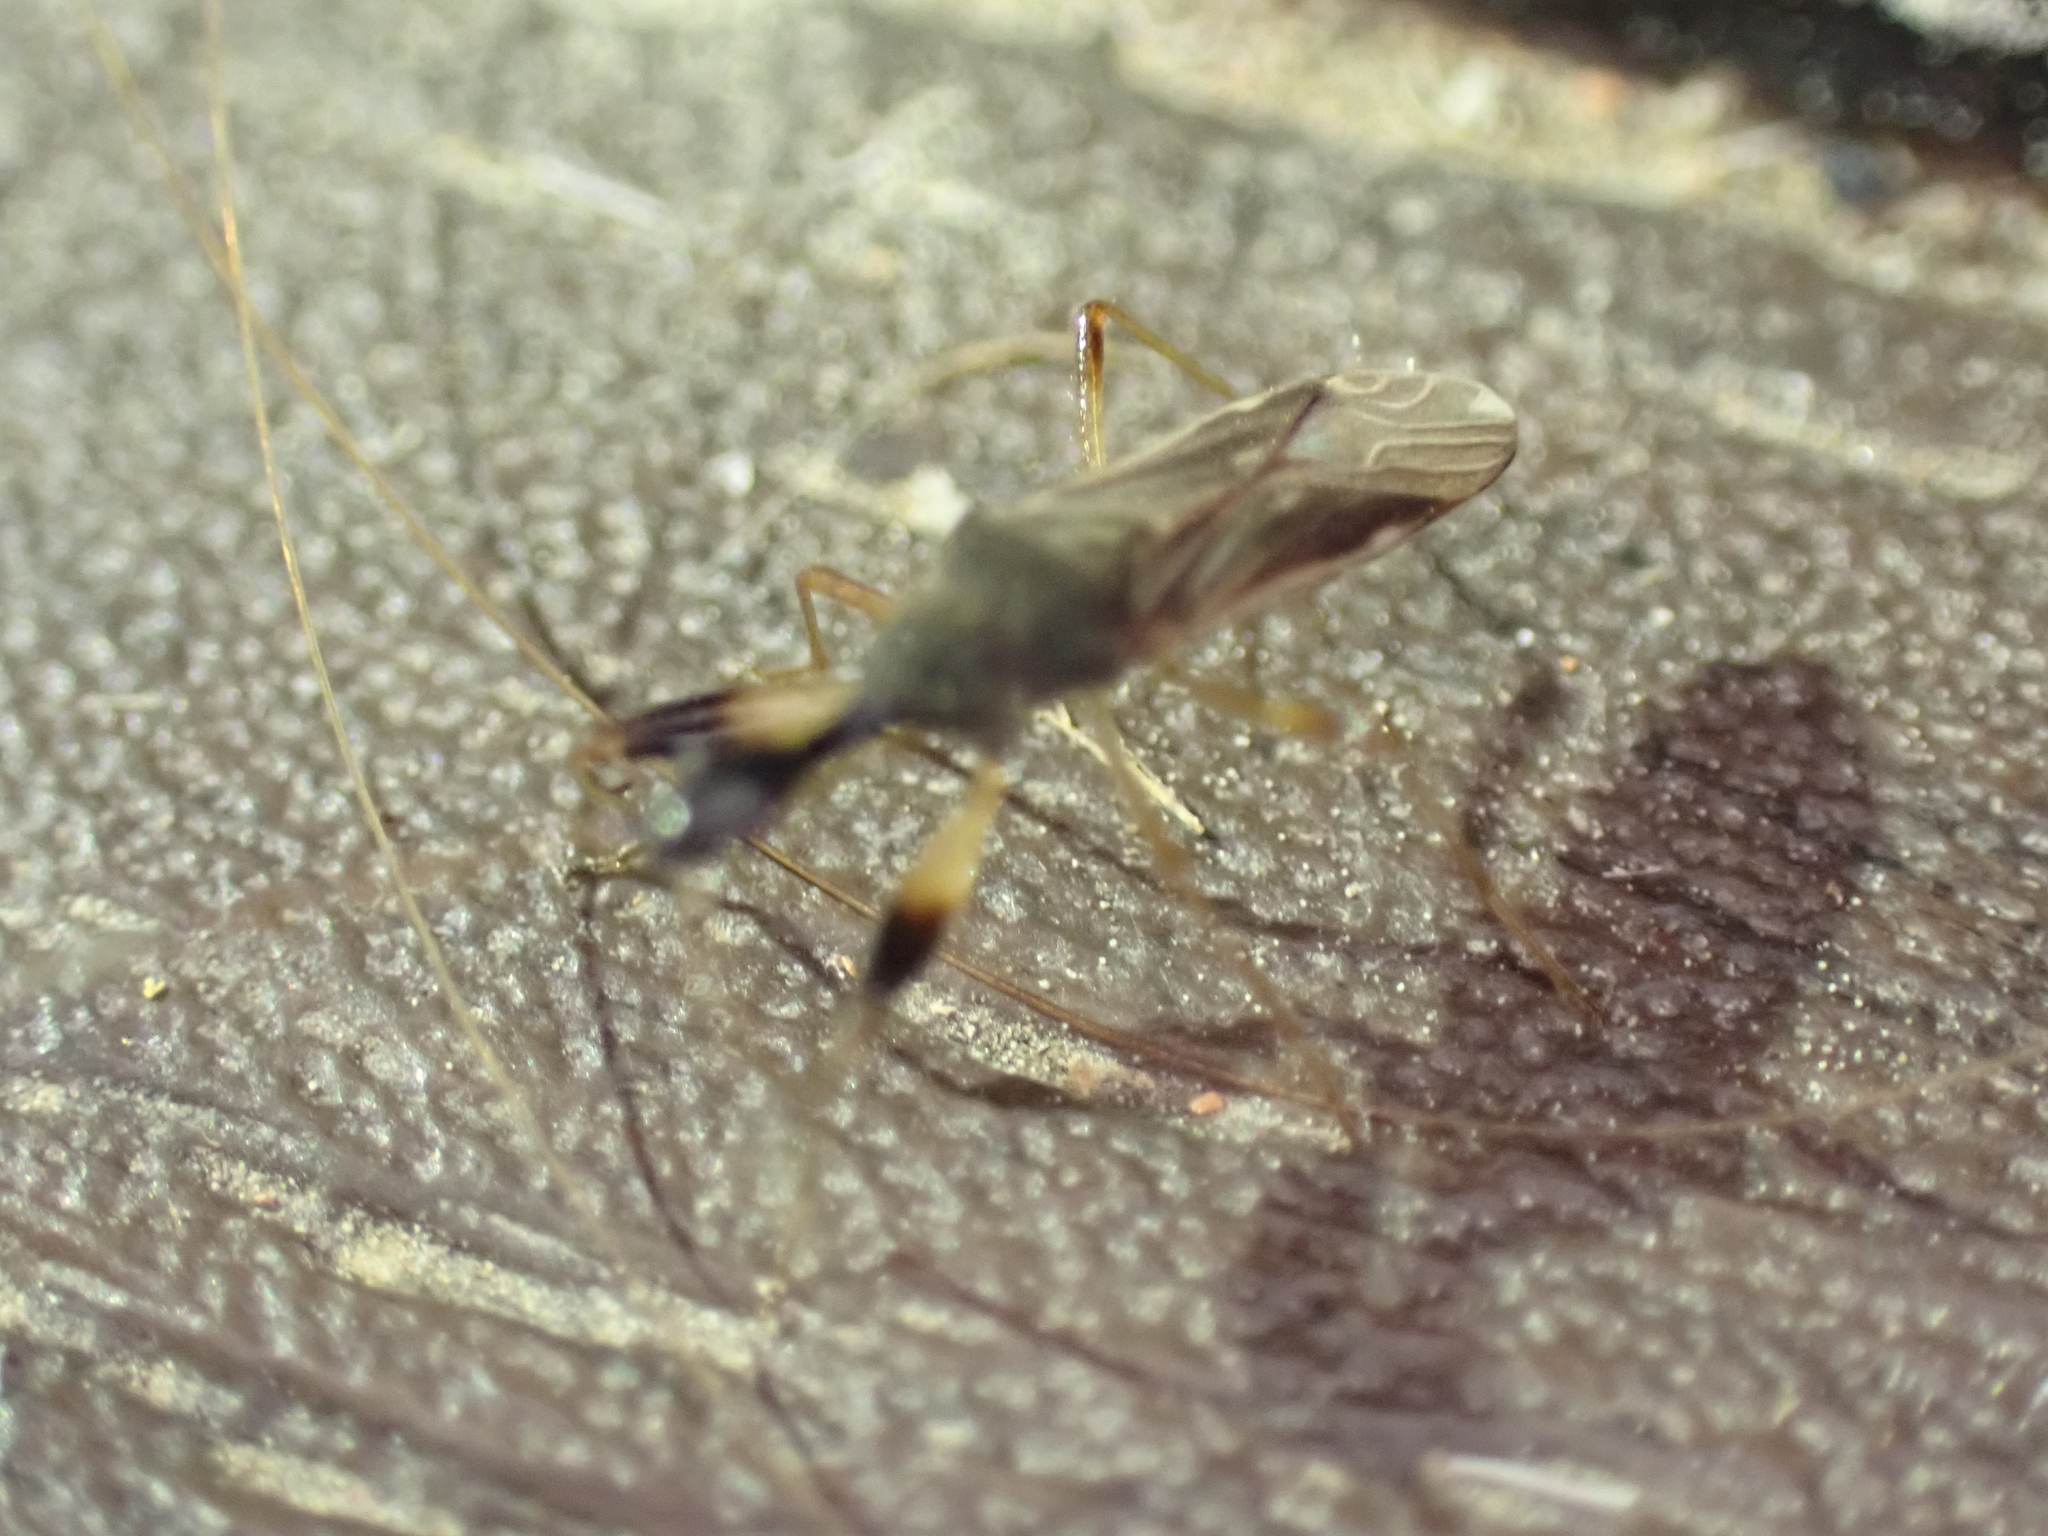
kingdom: Animalia
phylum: Arthropoda
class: Insecta
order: Hemiptera
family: Rhyparochromidae
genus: Myodocha
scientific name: Myodocha serripes
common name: Long-necked seed bug
